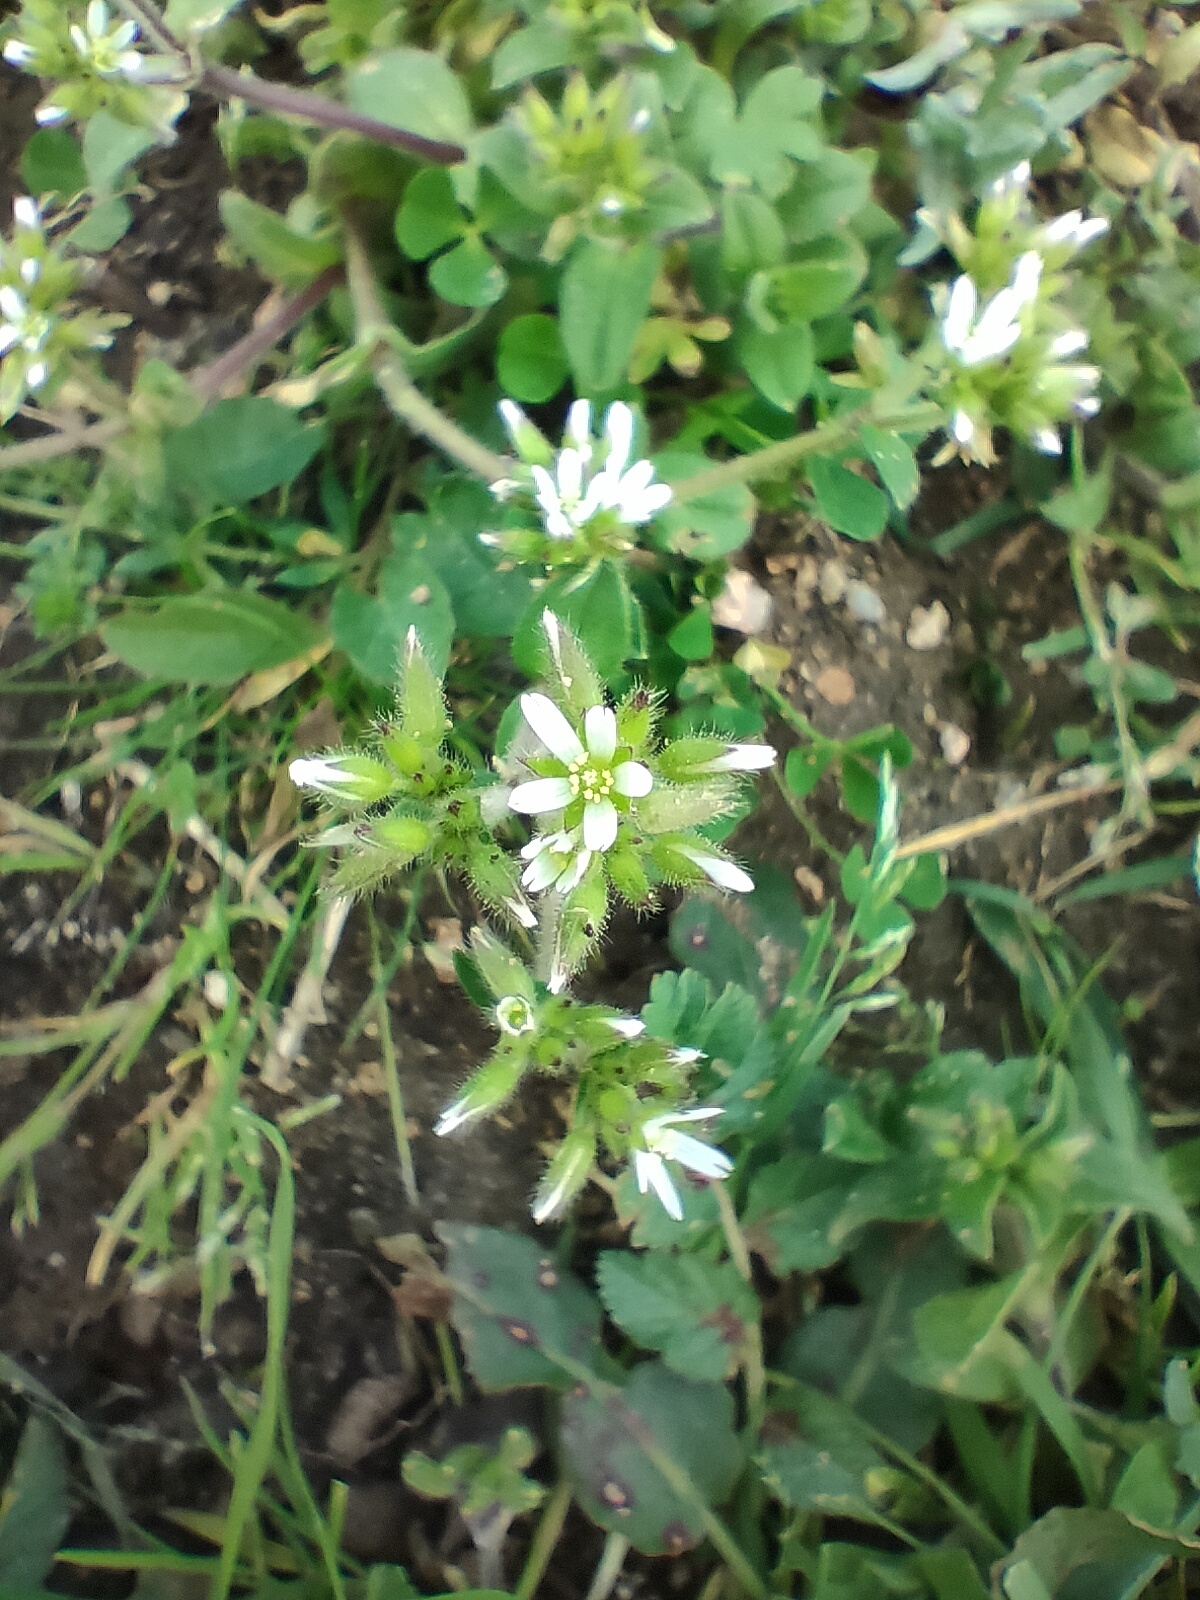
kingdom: Plantae
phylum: Tracheophyta
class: Magnoliopsida
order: Caryophyllales
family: Caryophyllaceae
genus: Cerastium
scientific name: Cerastium glomeratum
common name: Sticky chickweed
